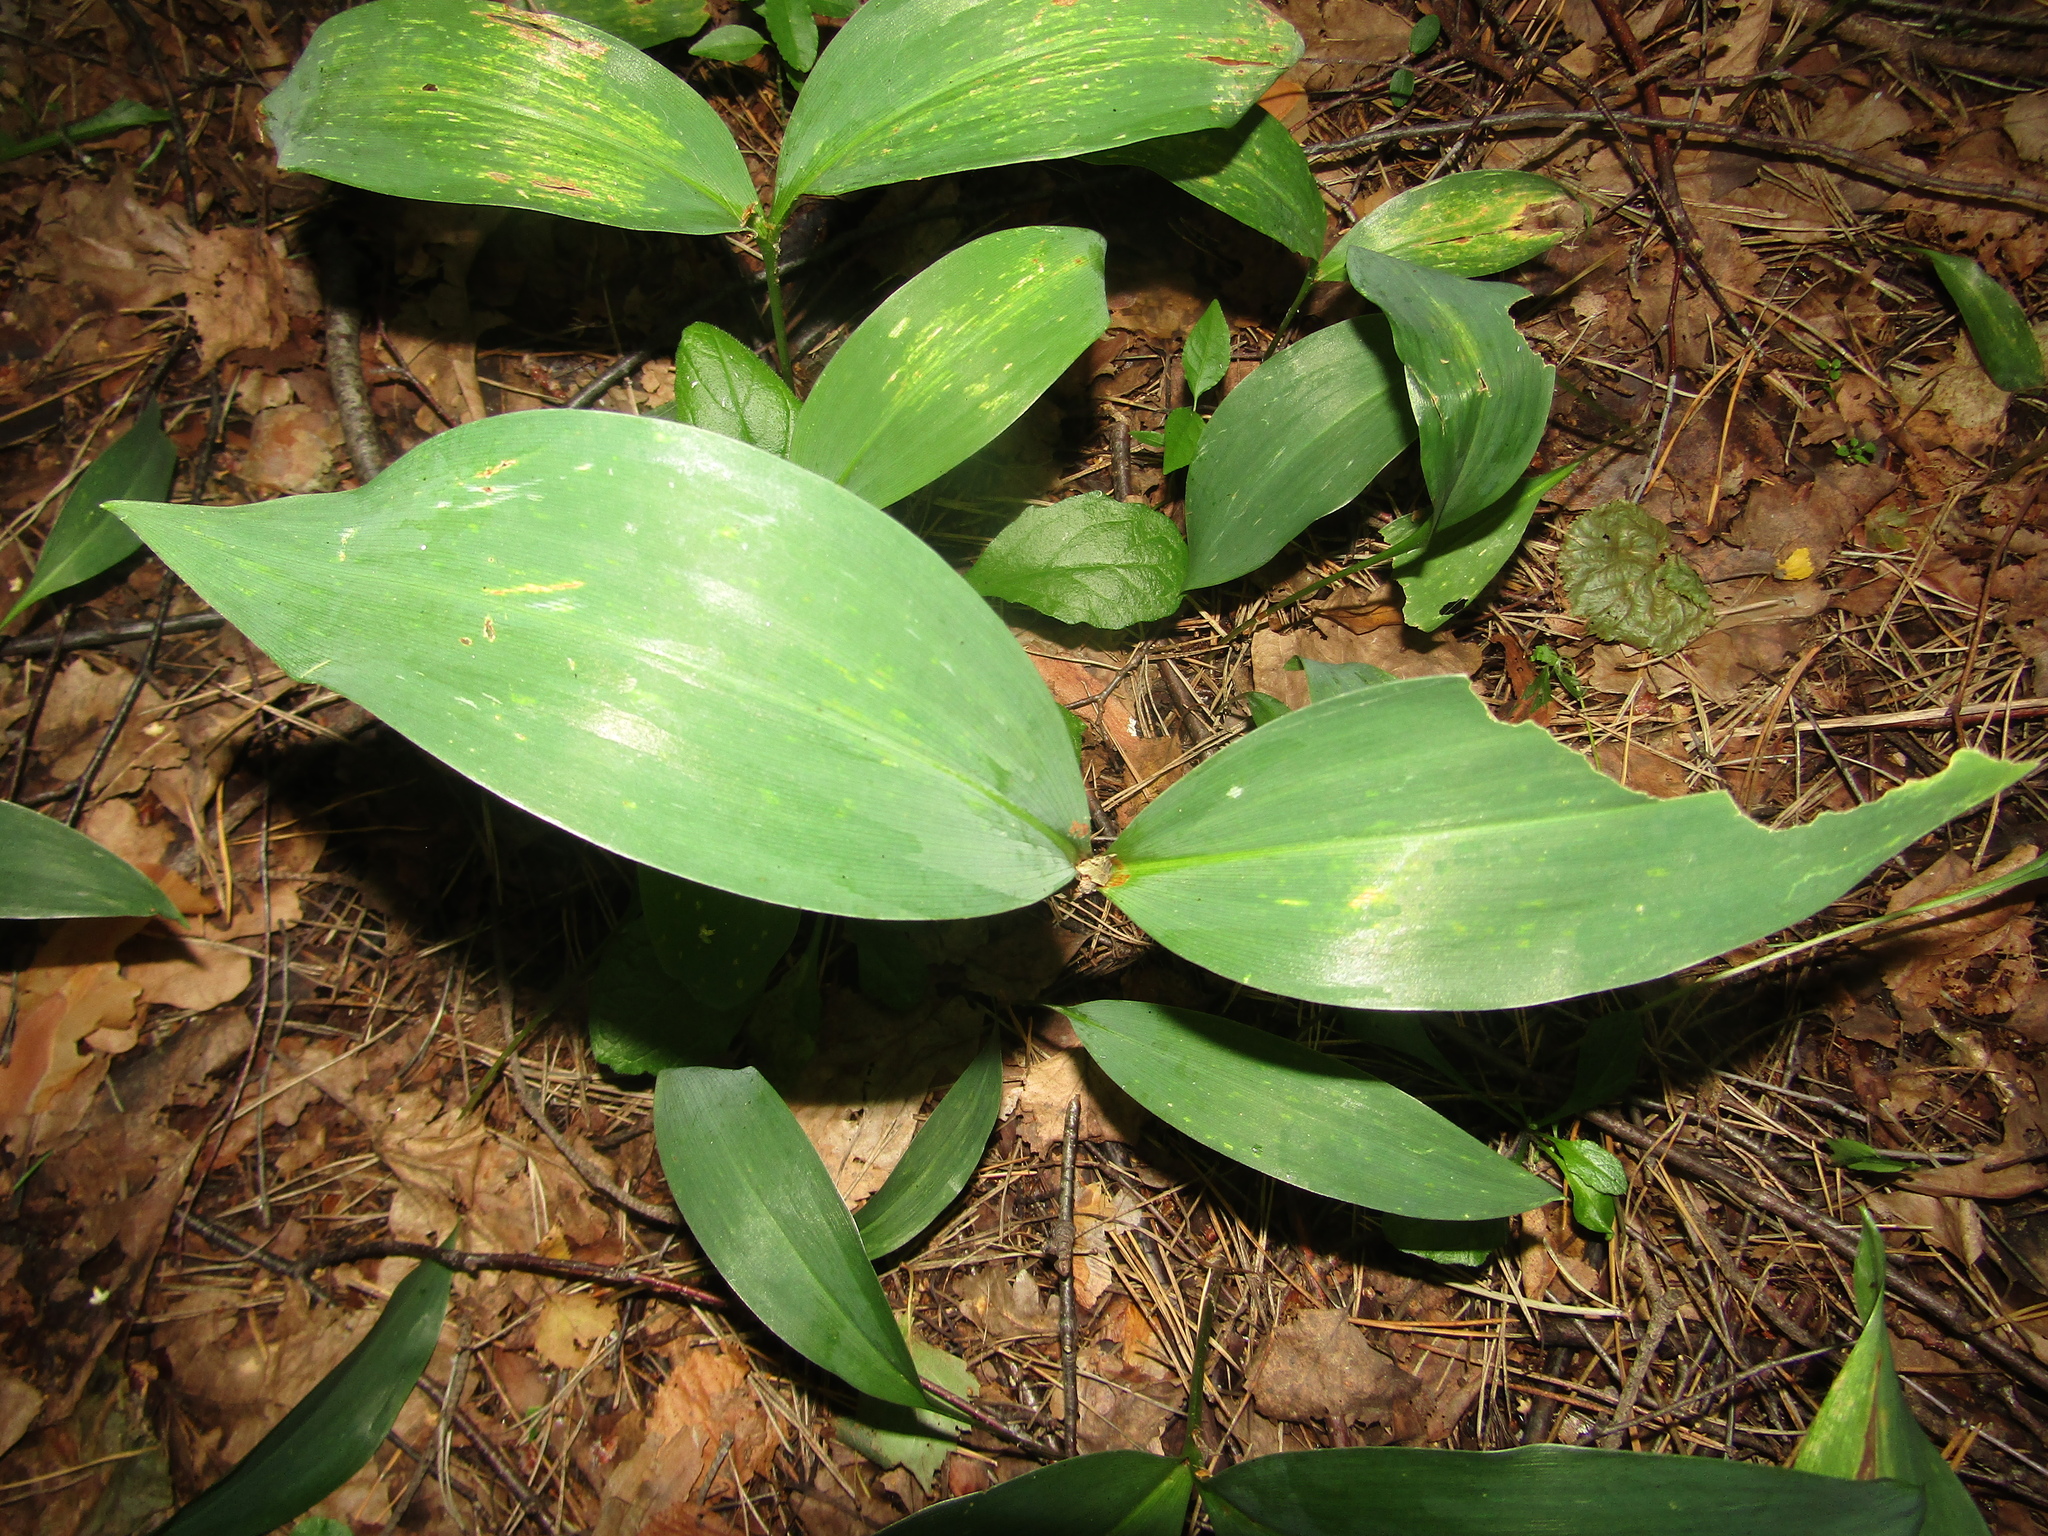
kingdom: Plantae
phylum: Tracheophyta
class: Liliopsida
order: Asparagales
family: Asparagaceae
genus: Convallaria
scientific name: Convallaria majalis
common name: Lily-of-the-valley
